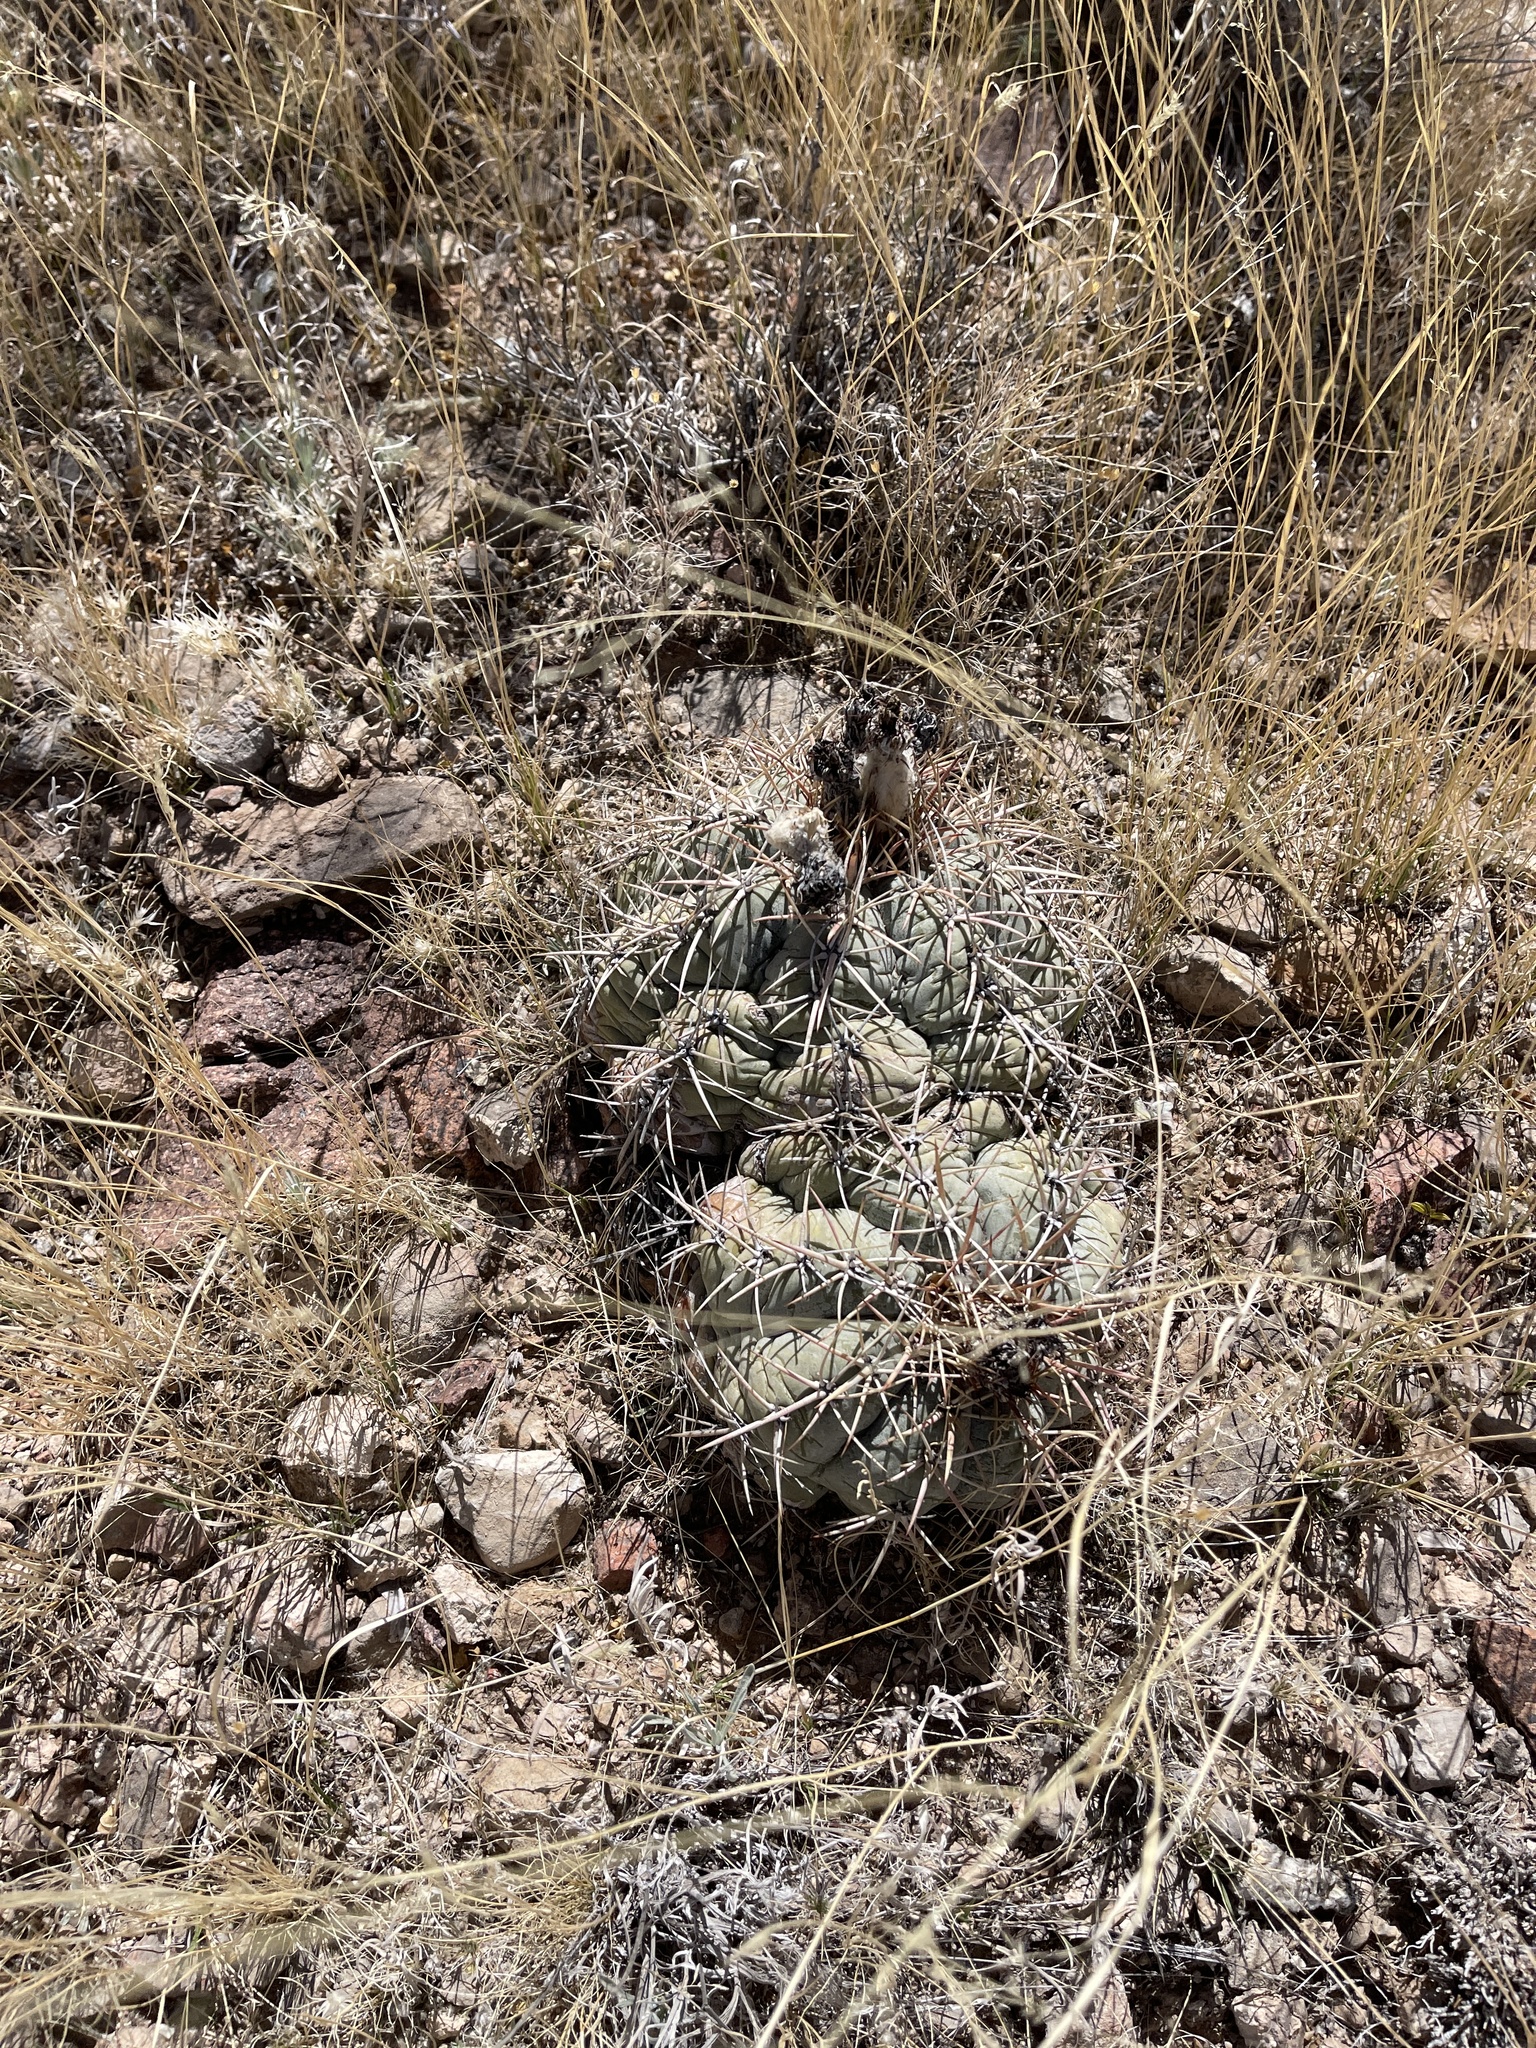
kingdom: Plantae
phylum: Tracheophyta
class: Magnoliopsida
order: Caryophyllales
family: Cactaceae
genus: Echinocactus
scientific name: Echinocactus horizonthalonius
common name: Devilshead
